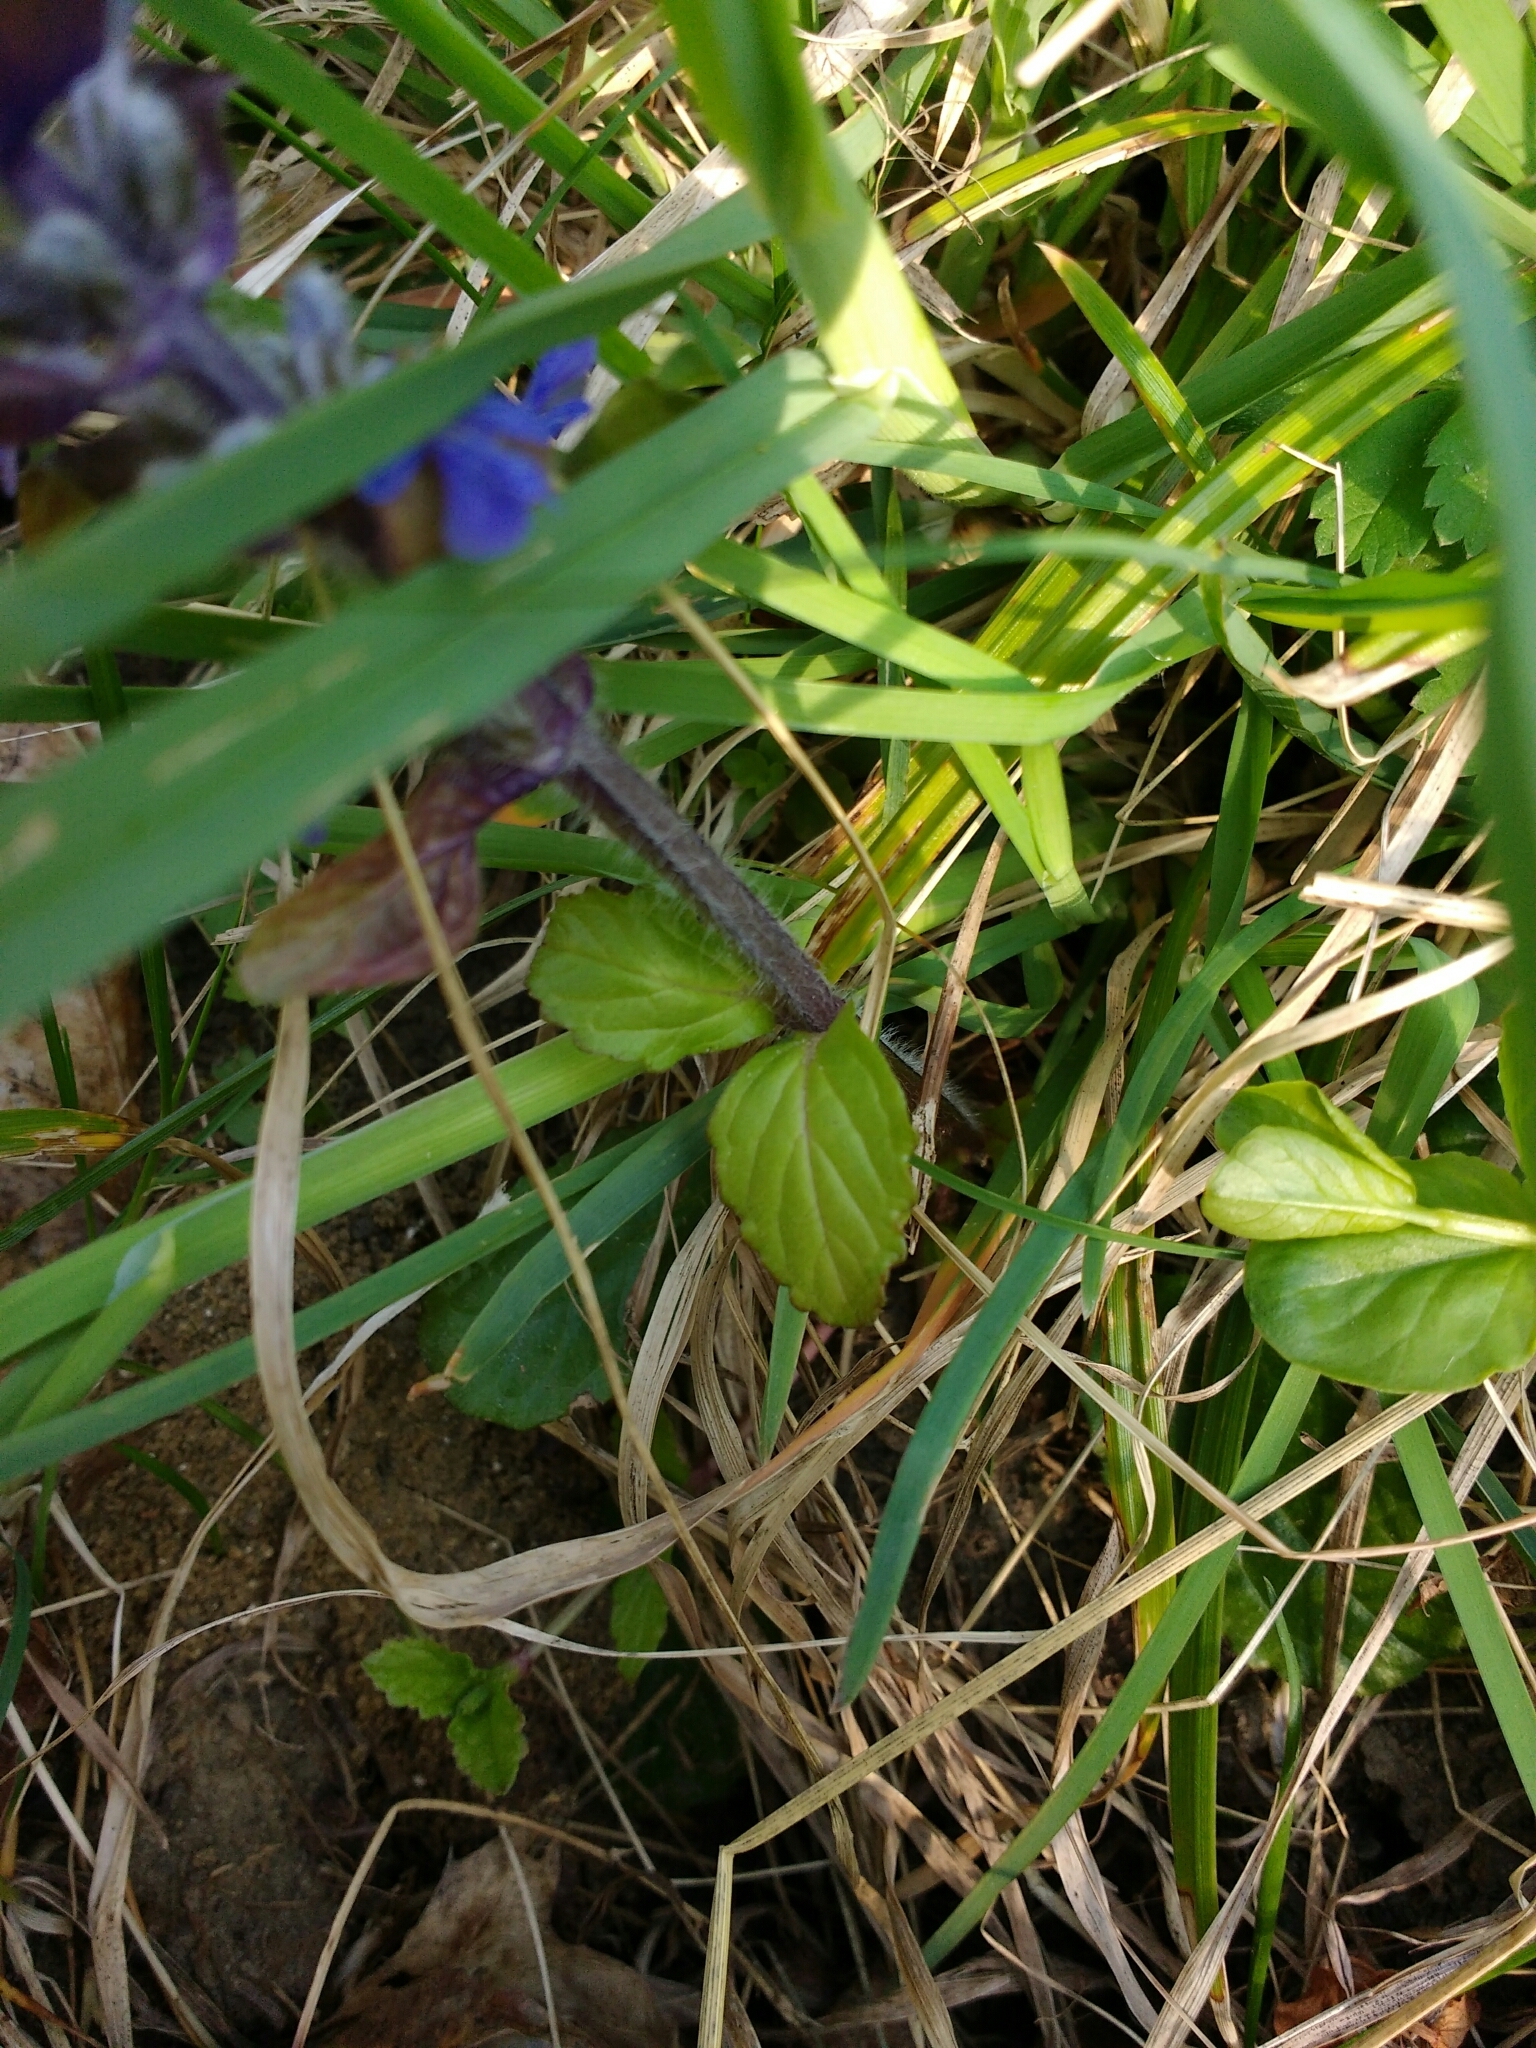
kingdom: Plantae
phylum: Tracheophyta
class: Magnoliopsida
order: Lamiales
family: Lamiaceae
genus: Ajuga
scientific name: Ajuga reptans
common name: Bugle
